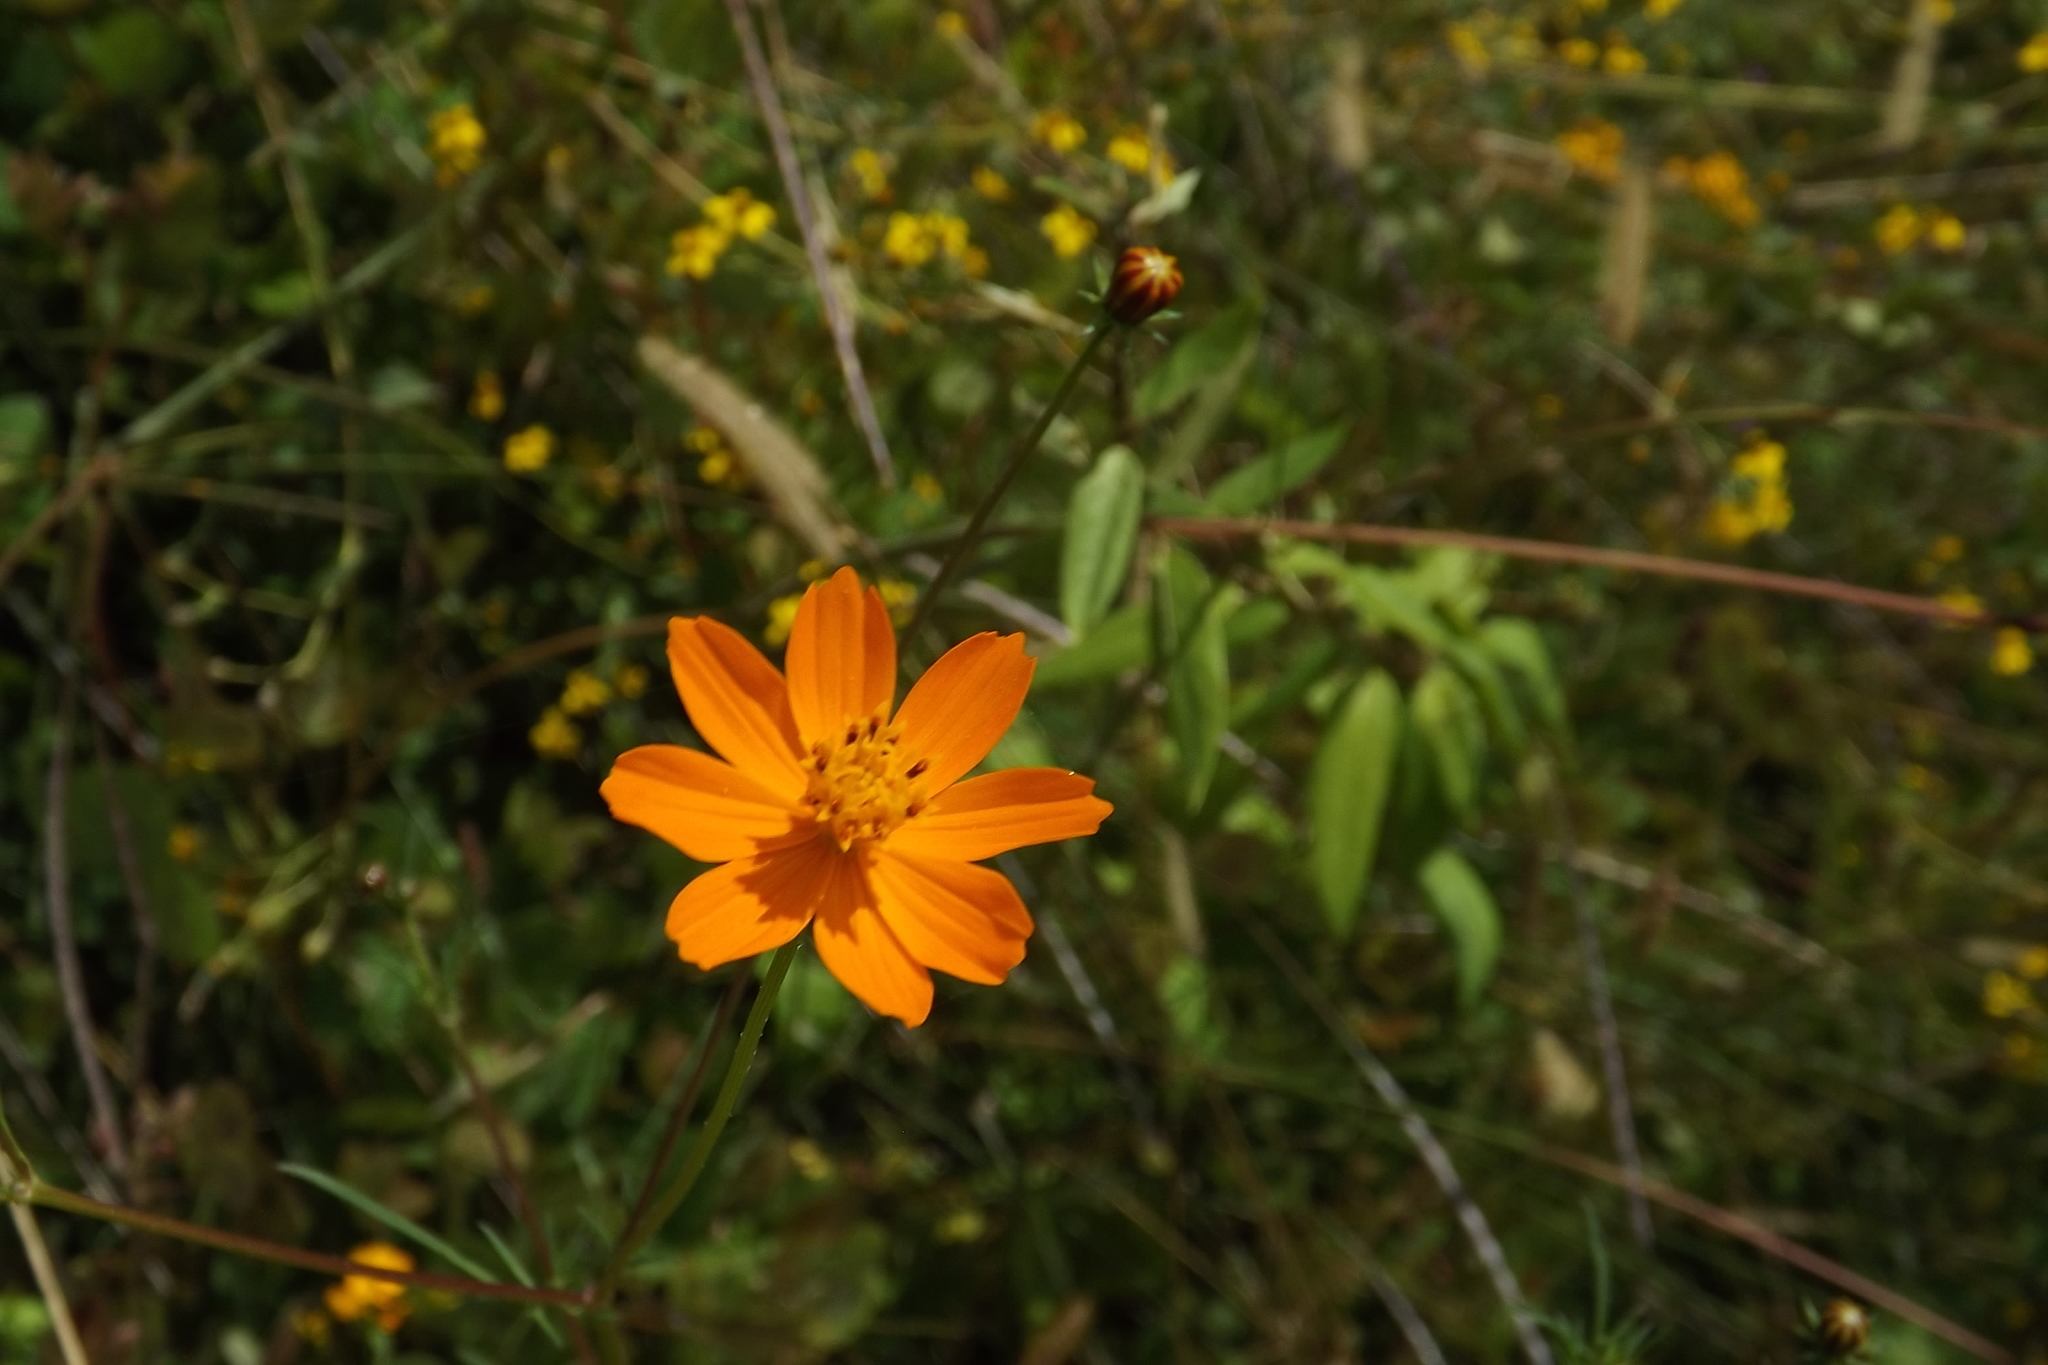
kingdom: Plantae
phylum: Tracheophyta
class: Magnoliopsida
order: Asterales
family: Asteraceae
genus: Cosmos
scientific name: Cosmos sulphureus
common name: Sulphur cosmos
